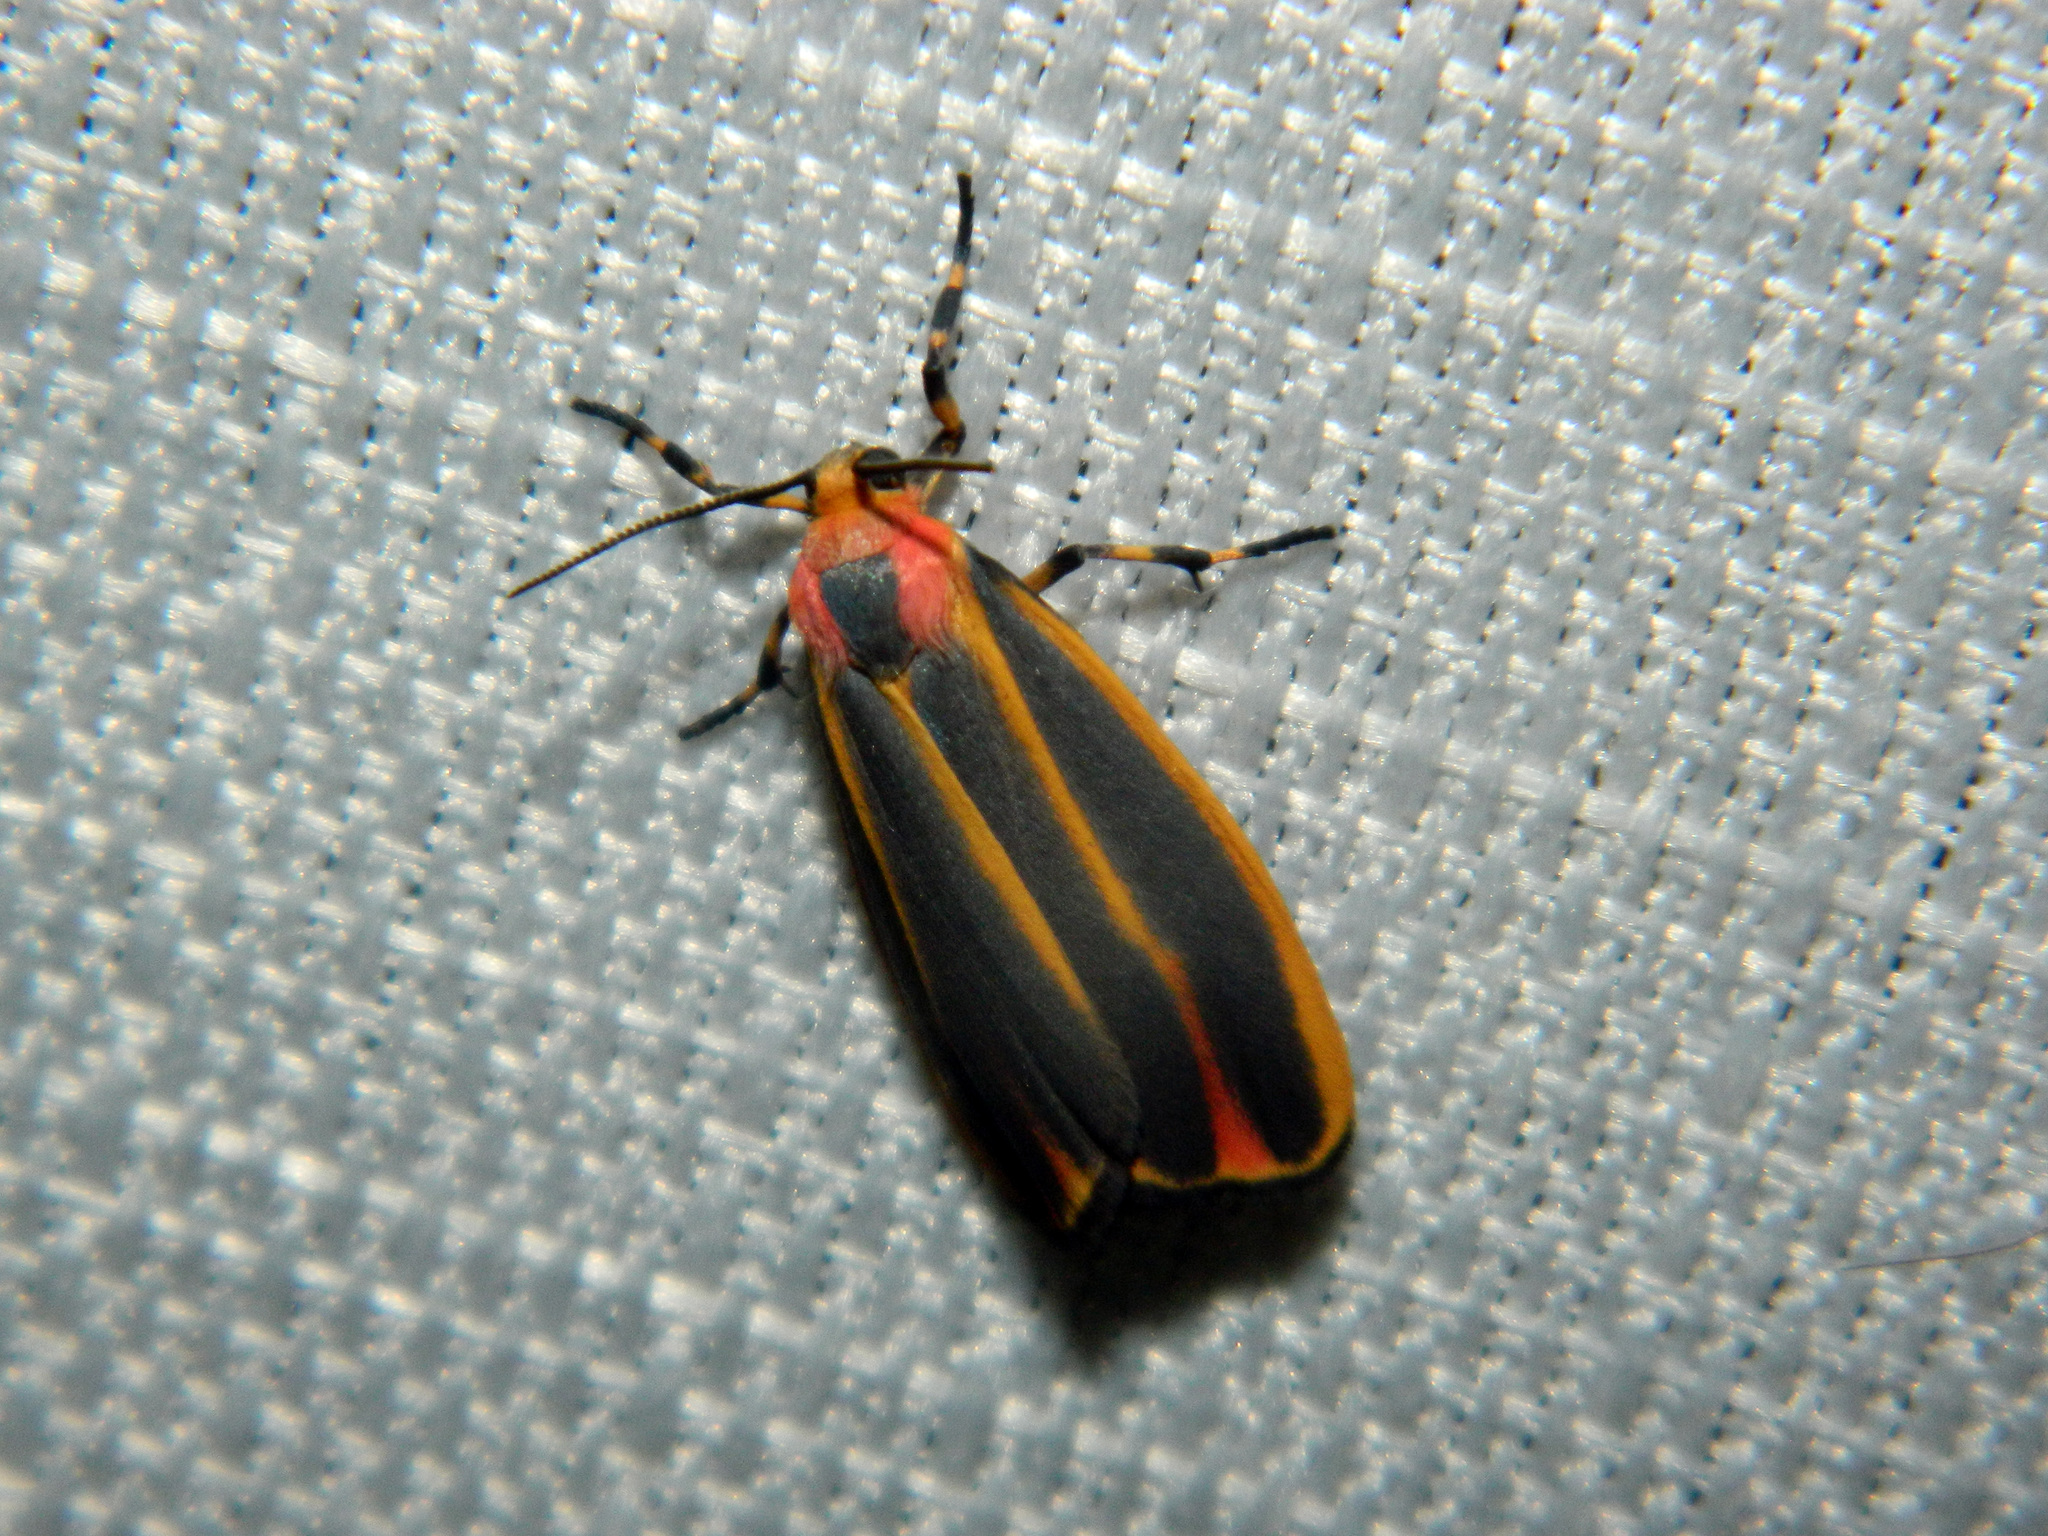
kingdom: Animalia
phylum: Arthropoda
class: Insecta
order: Lepidoptera
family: Erebidae
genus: Hypoprepia
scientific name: Hypoprepia fucosa
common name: Painted lichen moth
